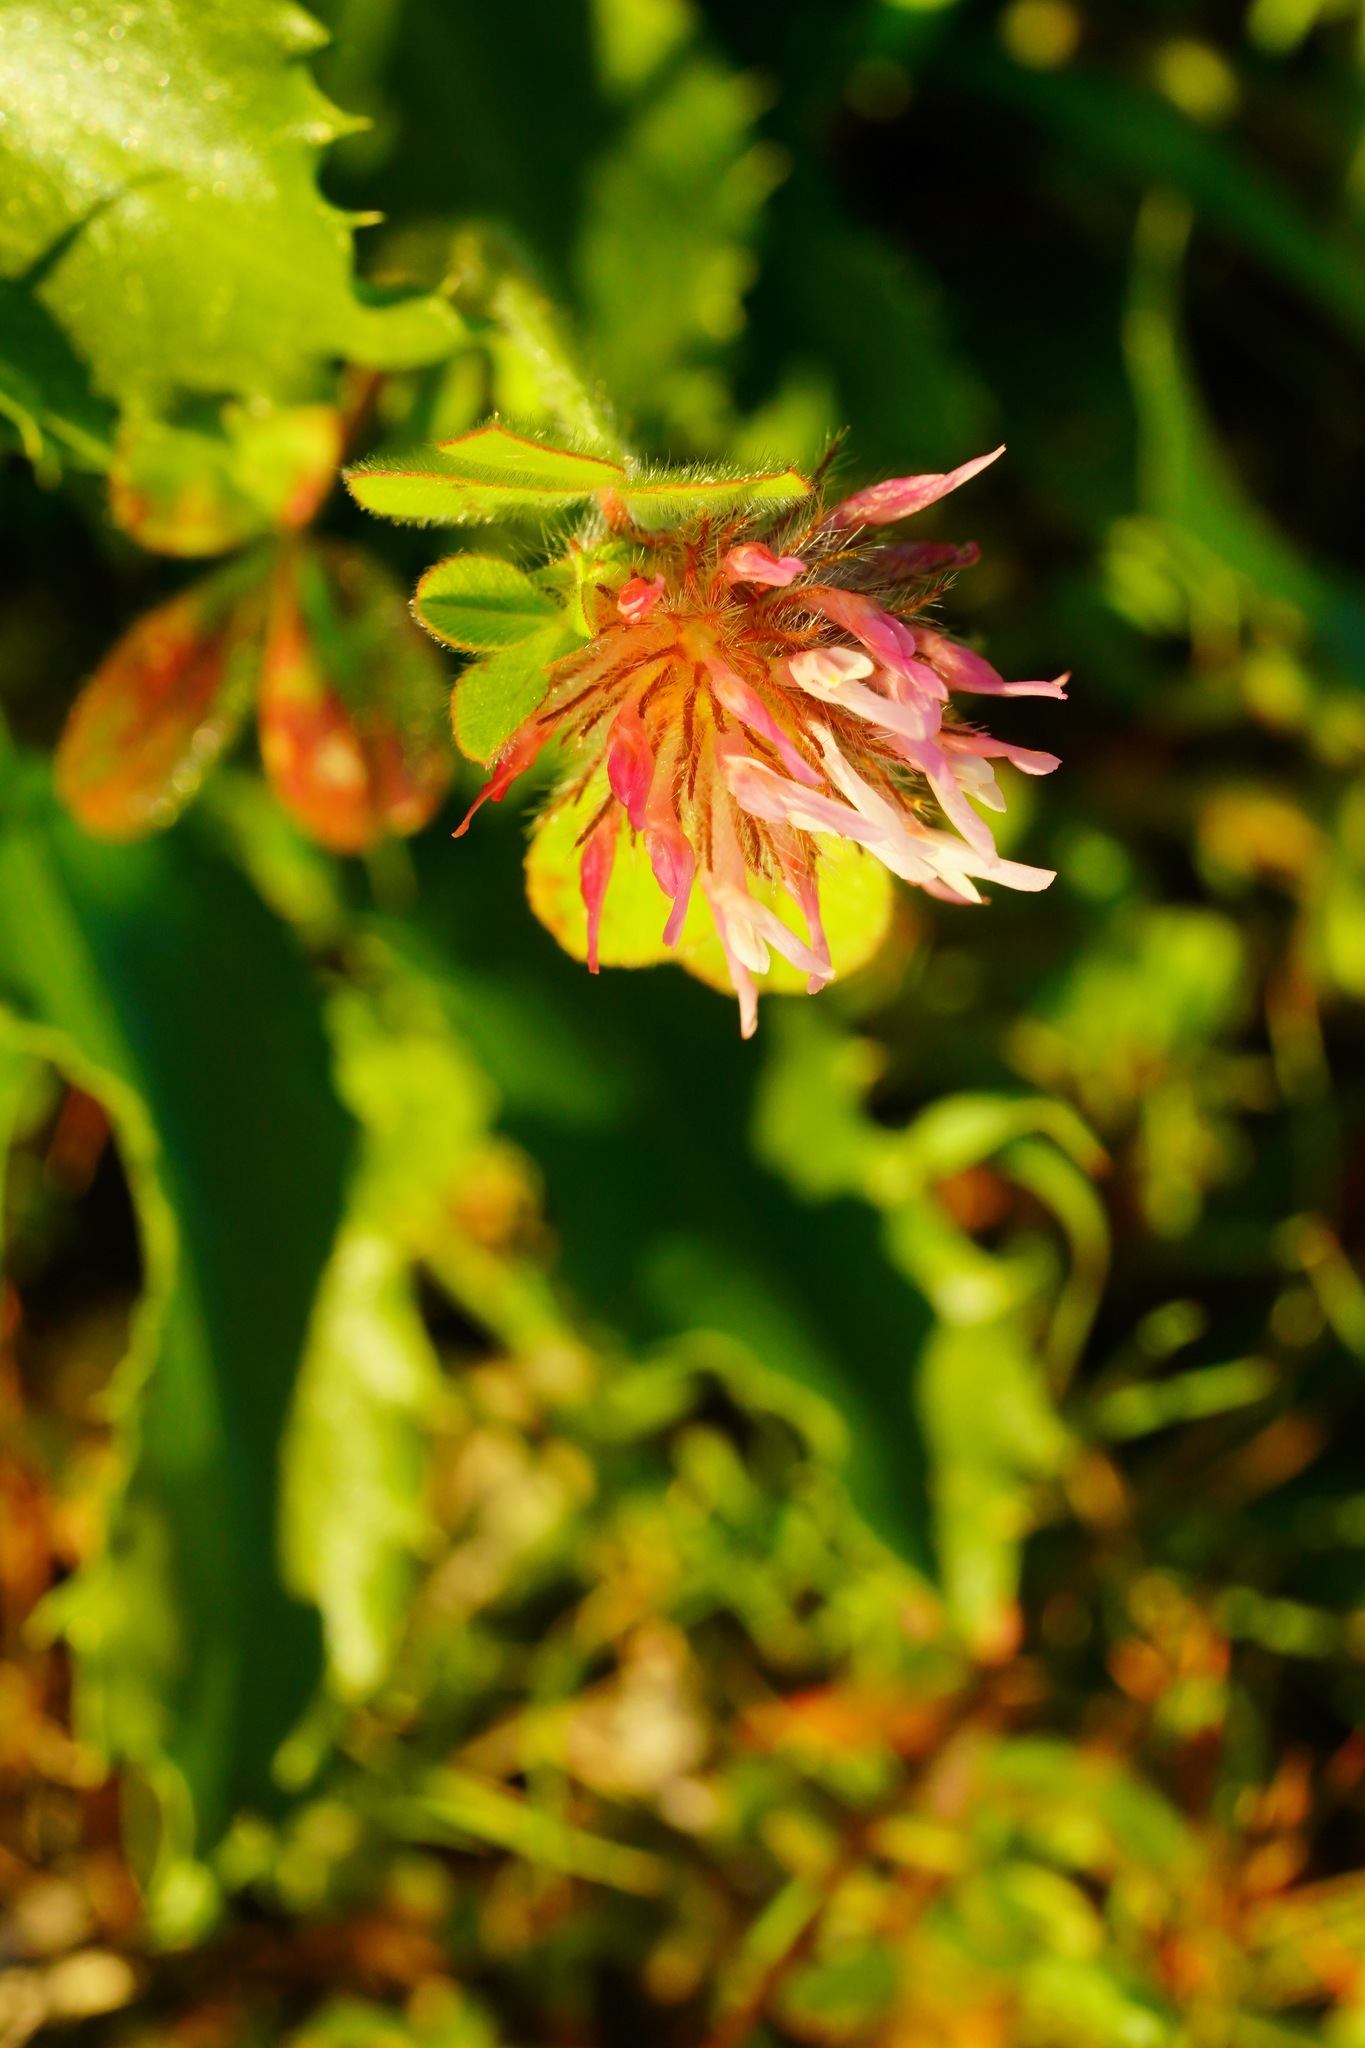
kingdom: Plantae
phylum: Tracheophyta
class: Magnoliopsida
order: Fabales
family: Fabaceae
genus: Trifolium
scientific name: Trifolium hirtum
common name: Rose clover
